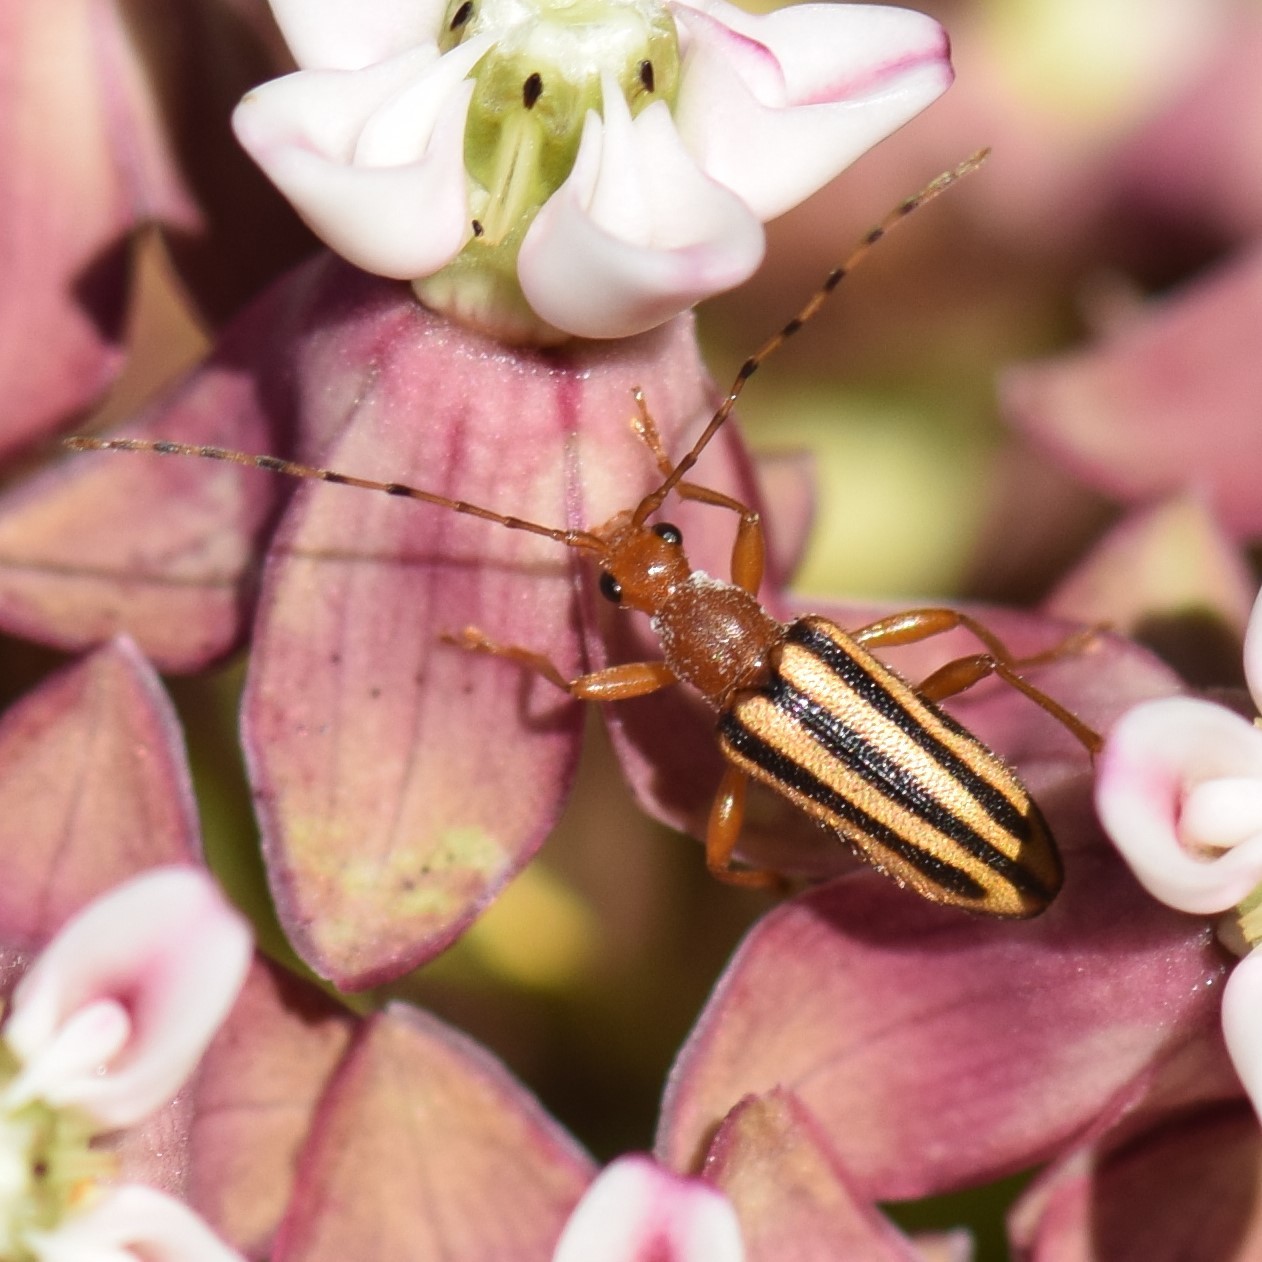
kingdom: Animalia
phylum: Arthropoda
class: Insecta
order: Coleoptera
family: Cerambycidae
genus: Metacmaeops
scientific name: Metacmaeops vittata
